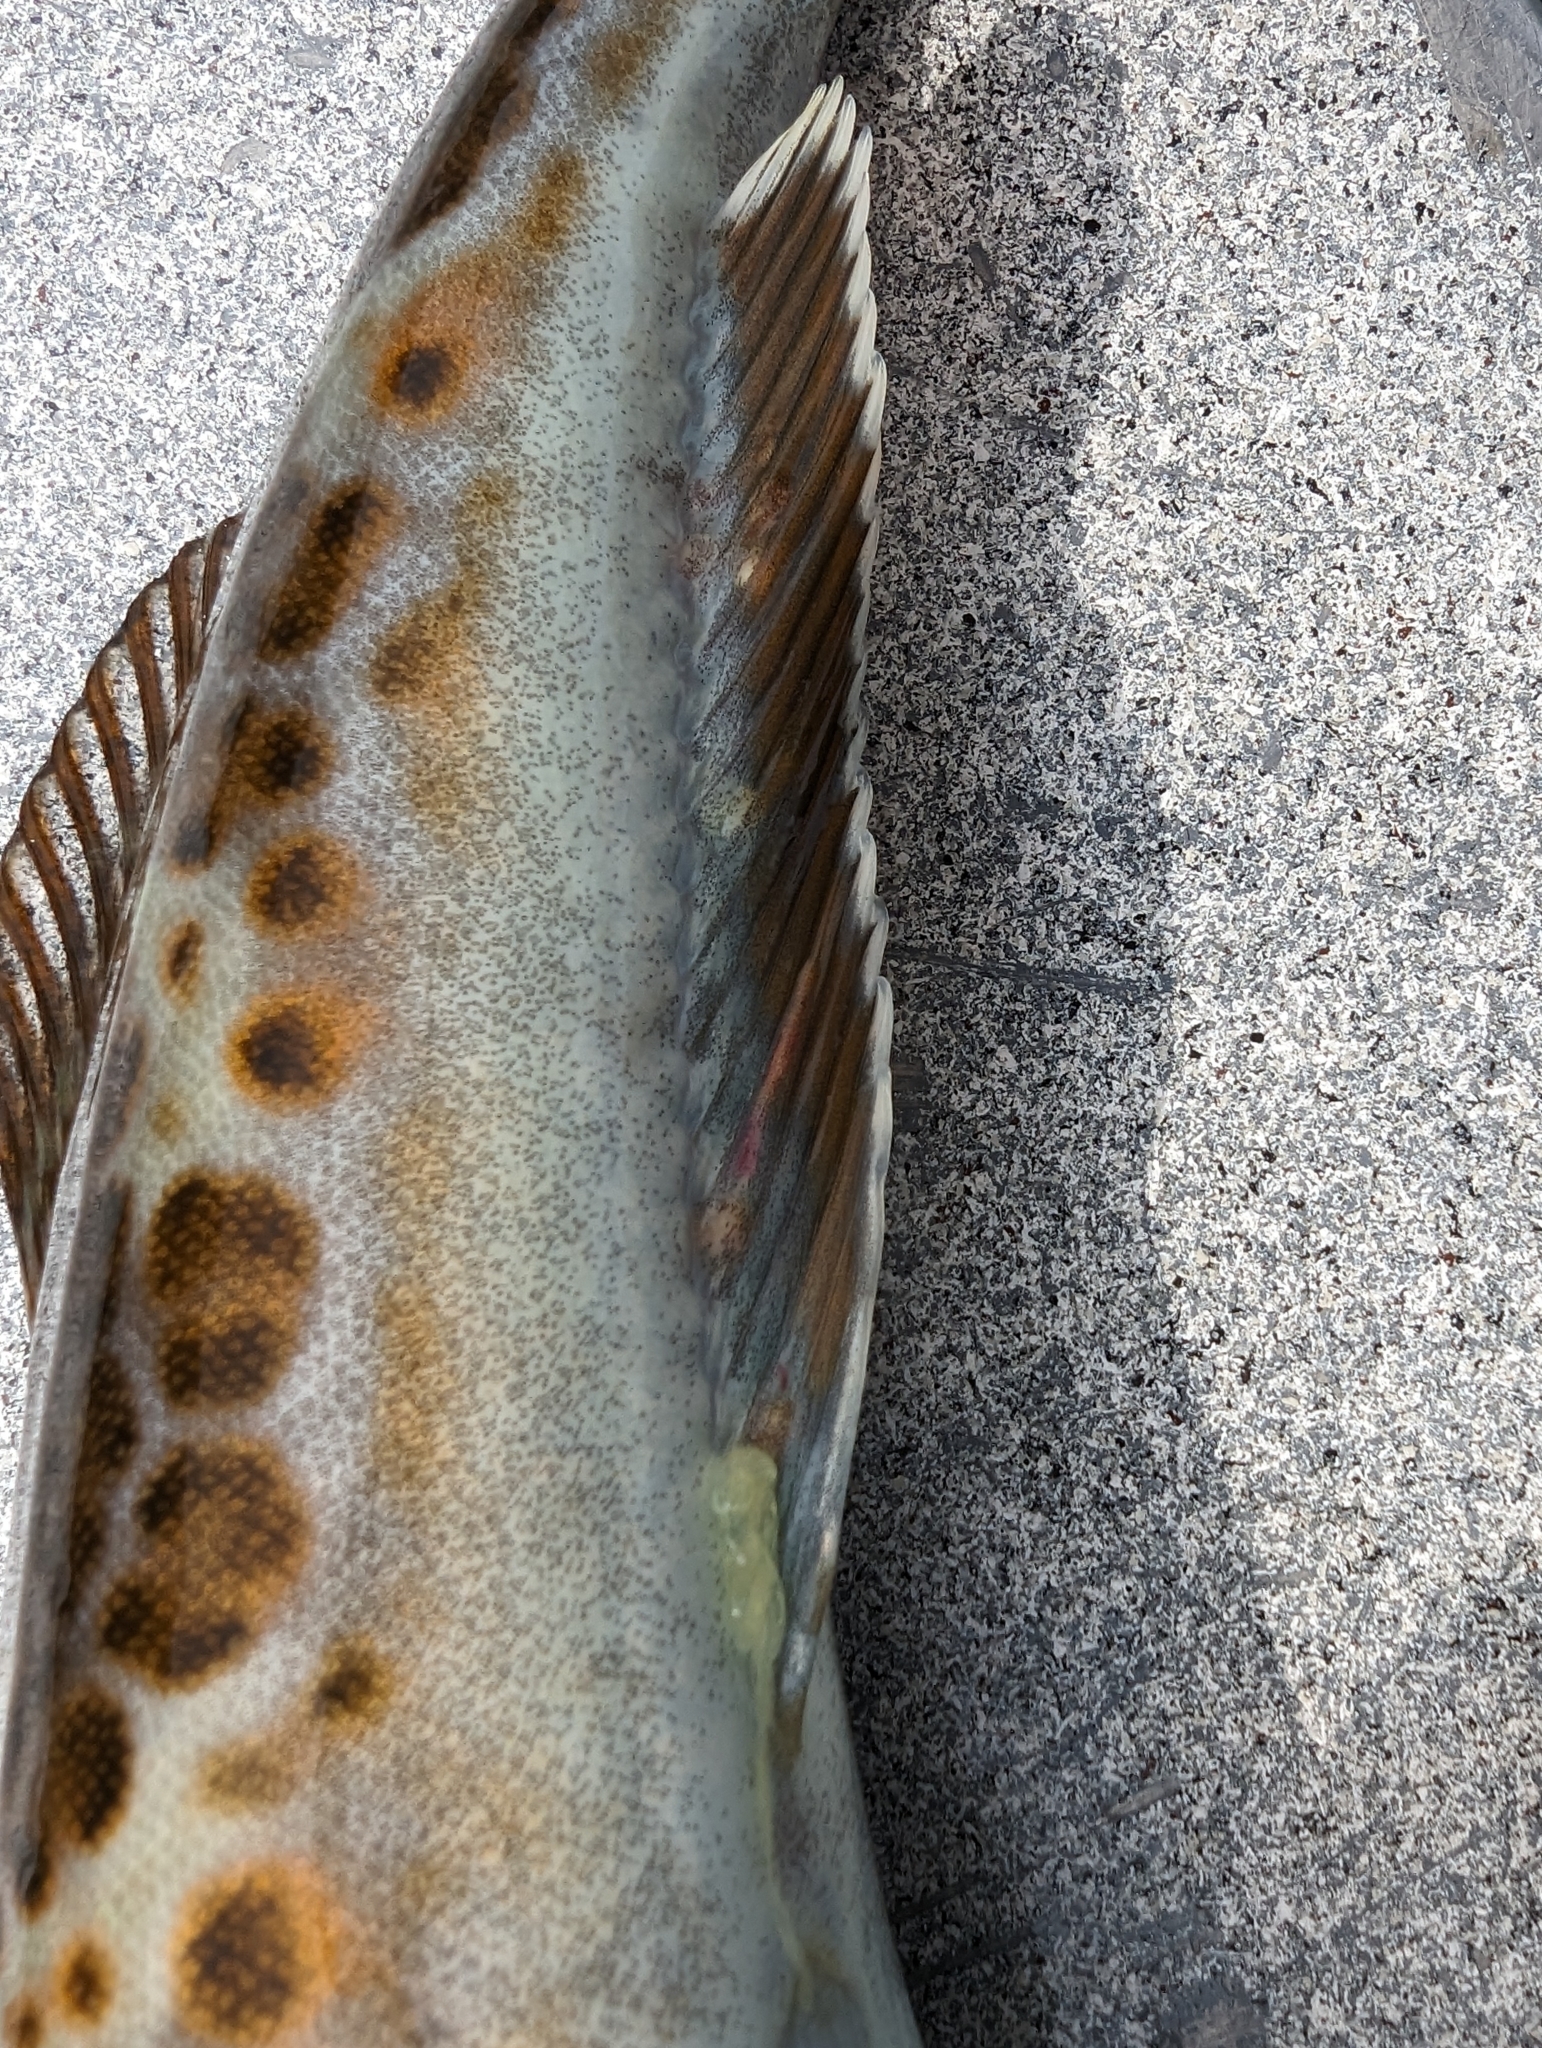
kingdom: Animalia
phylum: Chordata
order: Scorpaeniformes
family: Hexagrammidae
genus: Ophiodon
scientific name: Ophiodon elongatus
